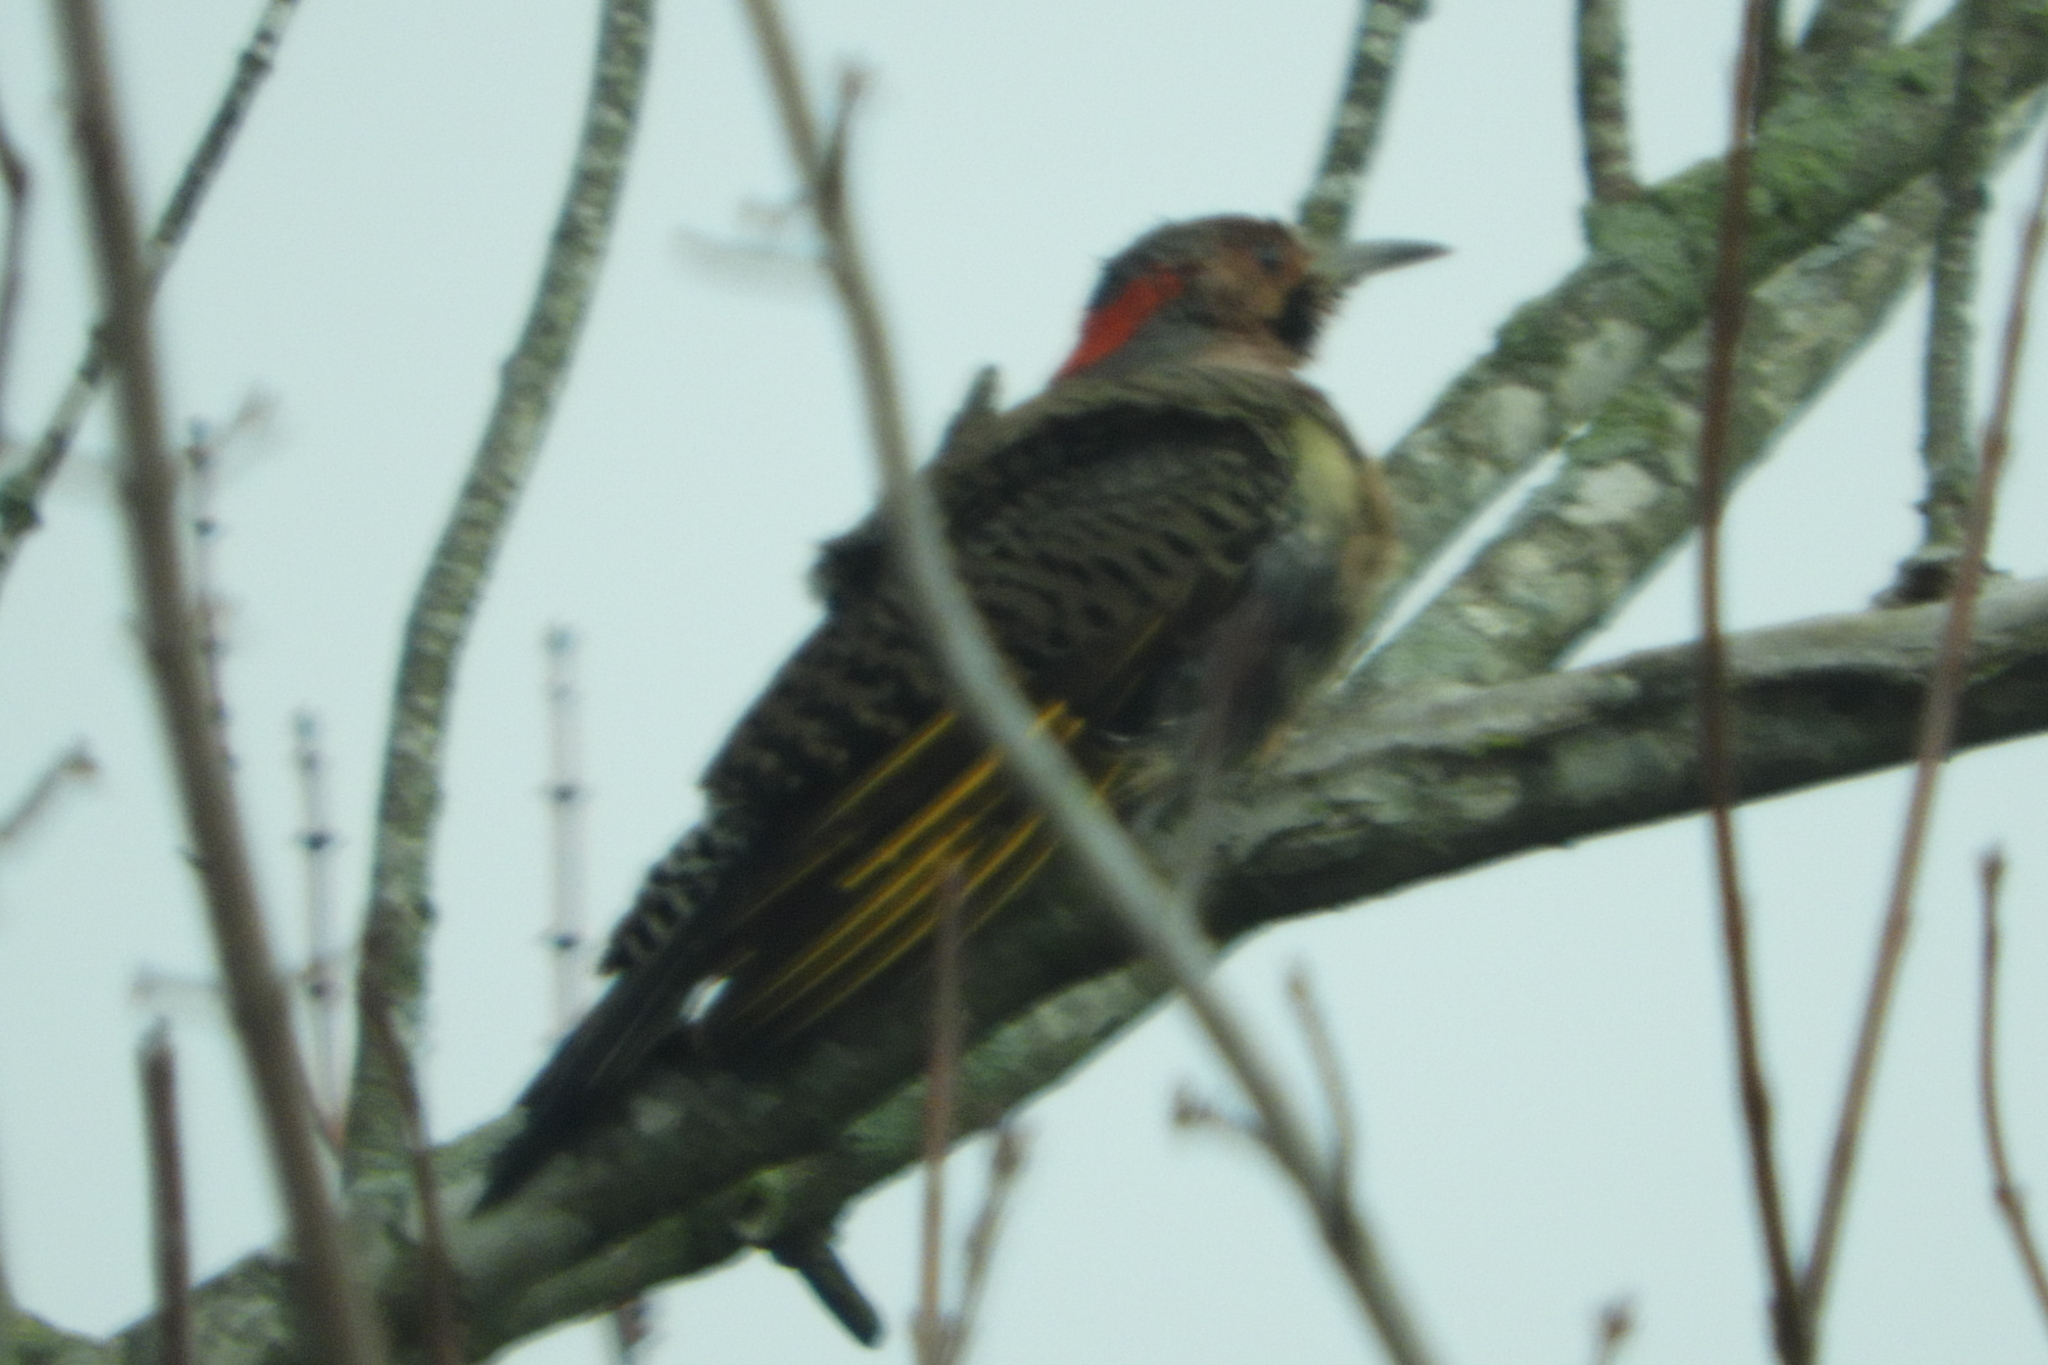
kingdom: Animalia
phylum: Chordata
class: Aves
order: Piciformes
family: Picidae
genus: Colaptes
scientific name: Colaptes auratus
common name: Northern flicker
